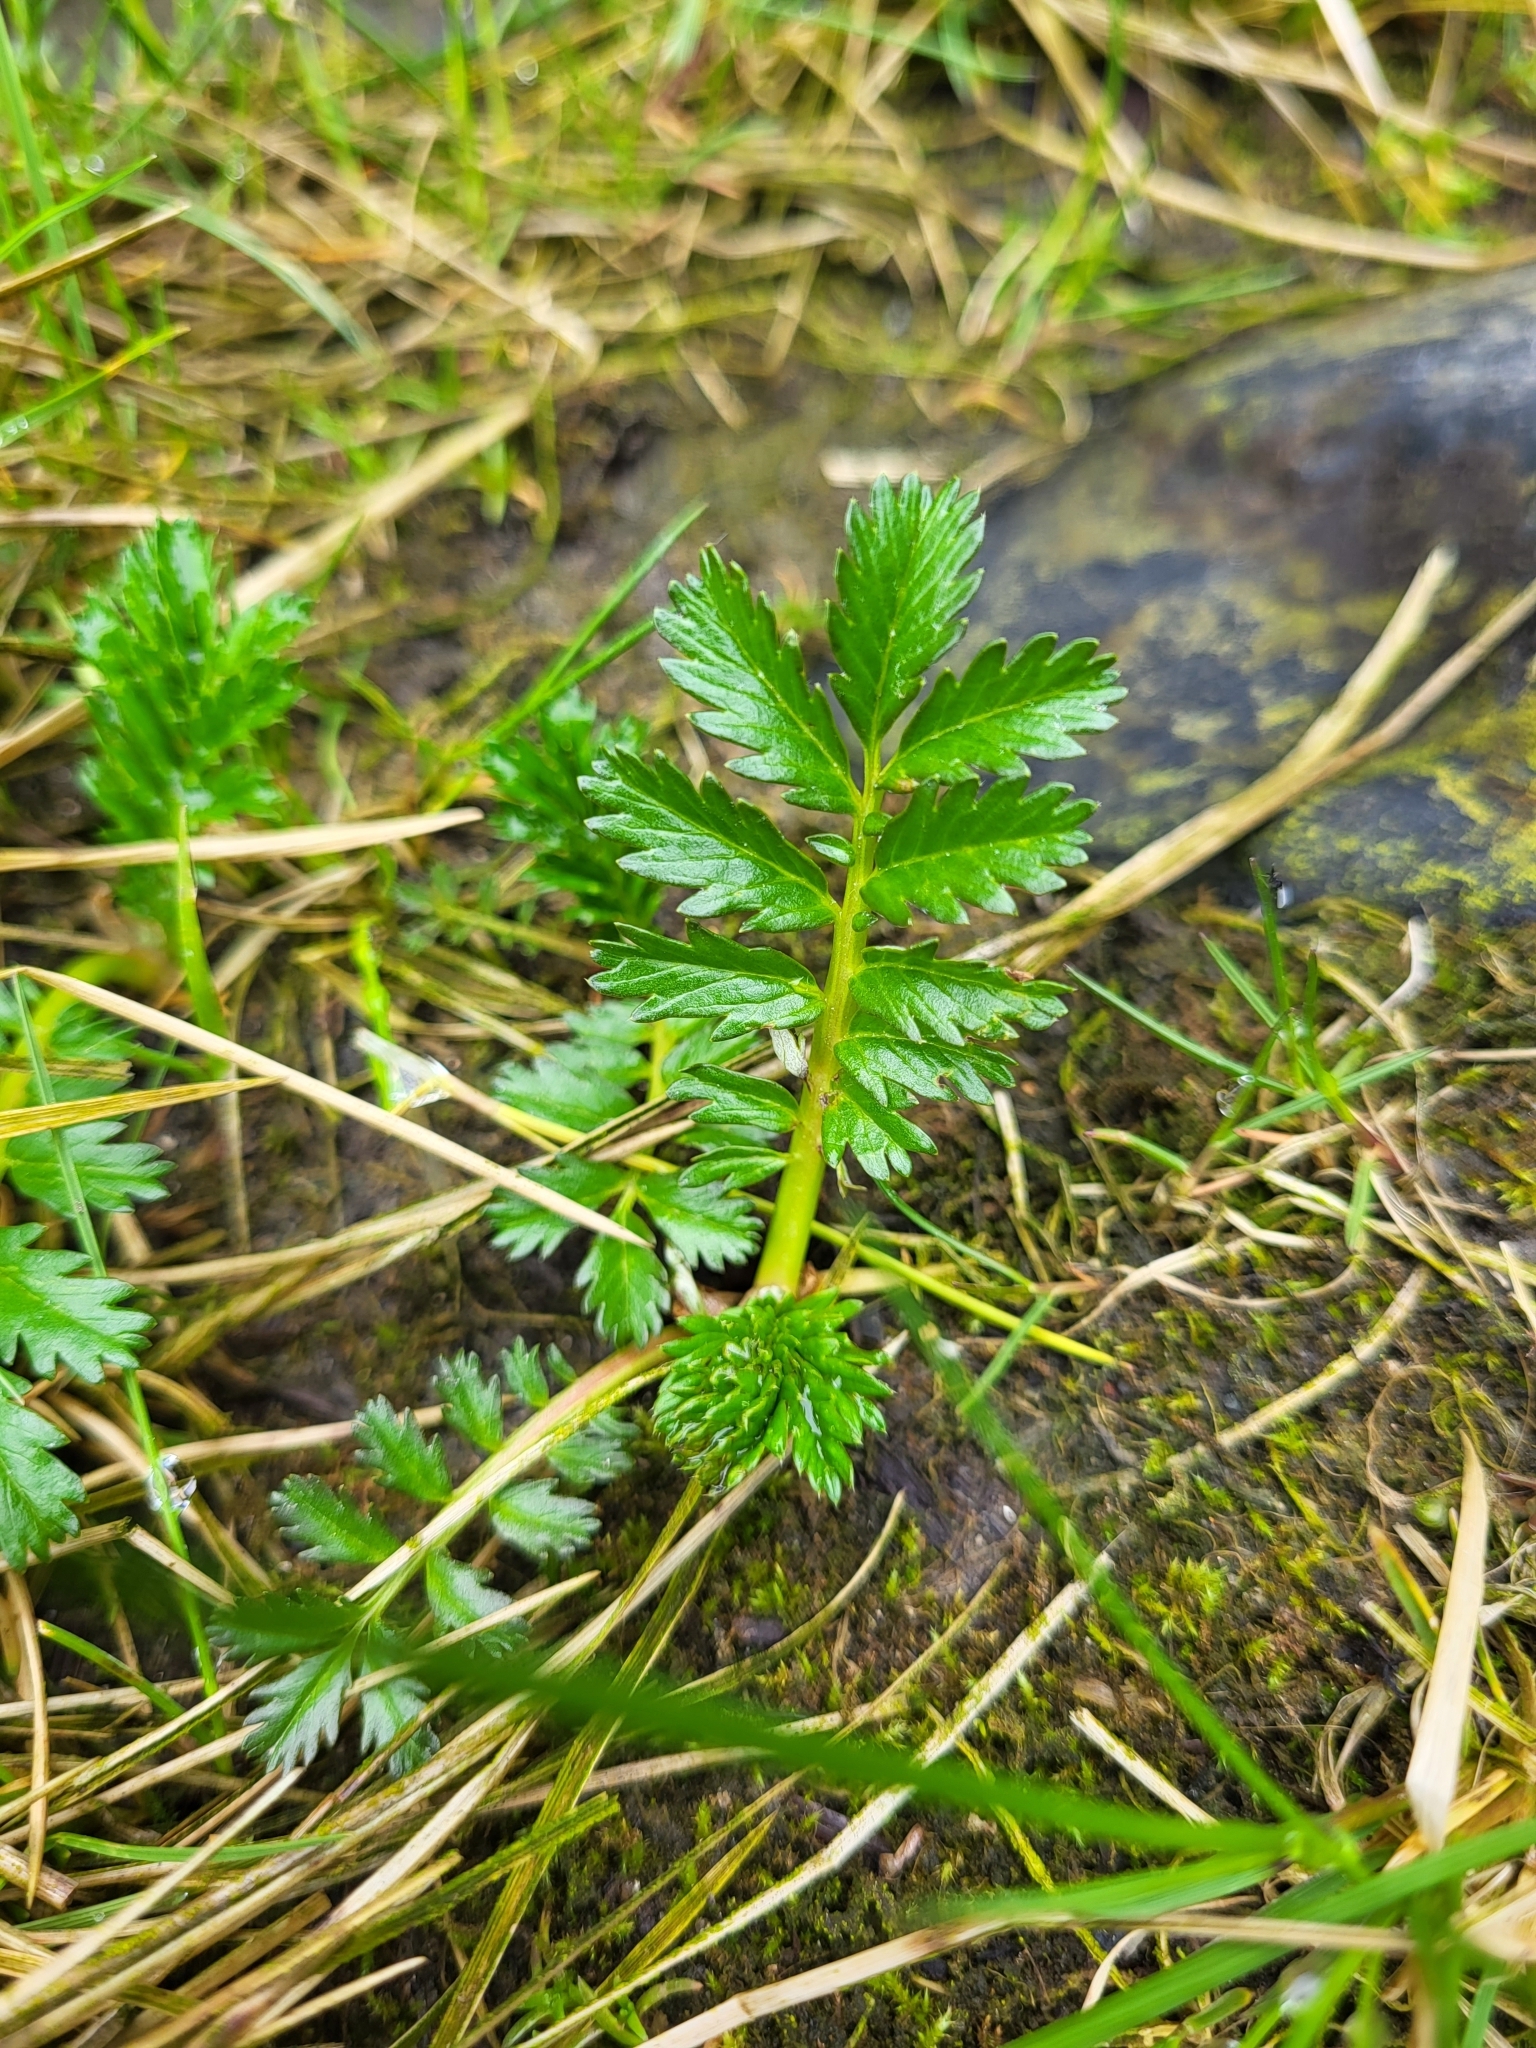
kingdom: Plantae
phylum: Tracheophyta
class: Magnoliopsida
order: Rosales
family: Rosaceae
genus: Argentina
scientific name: Argentina anserina
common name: Common silverweed
